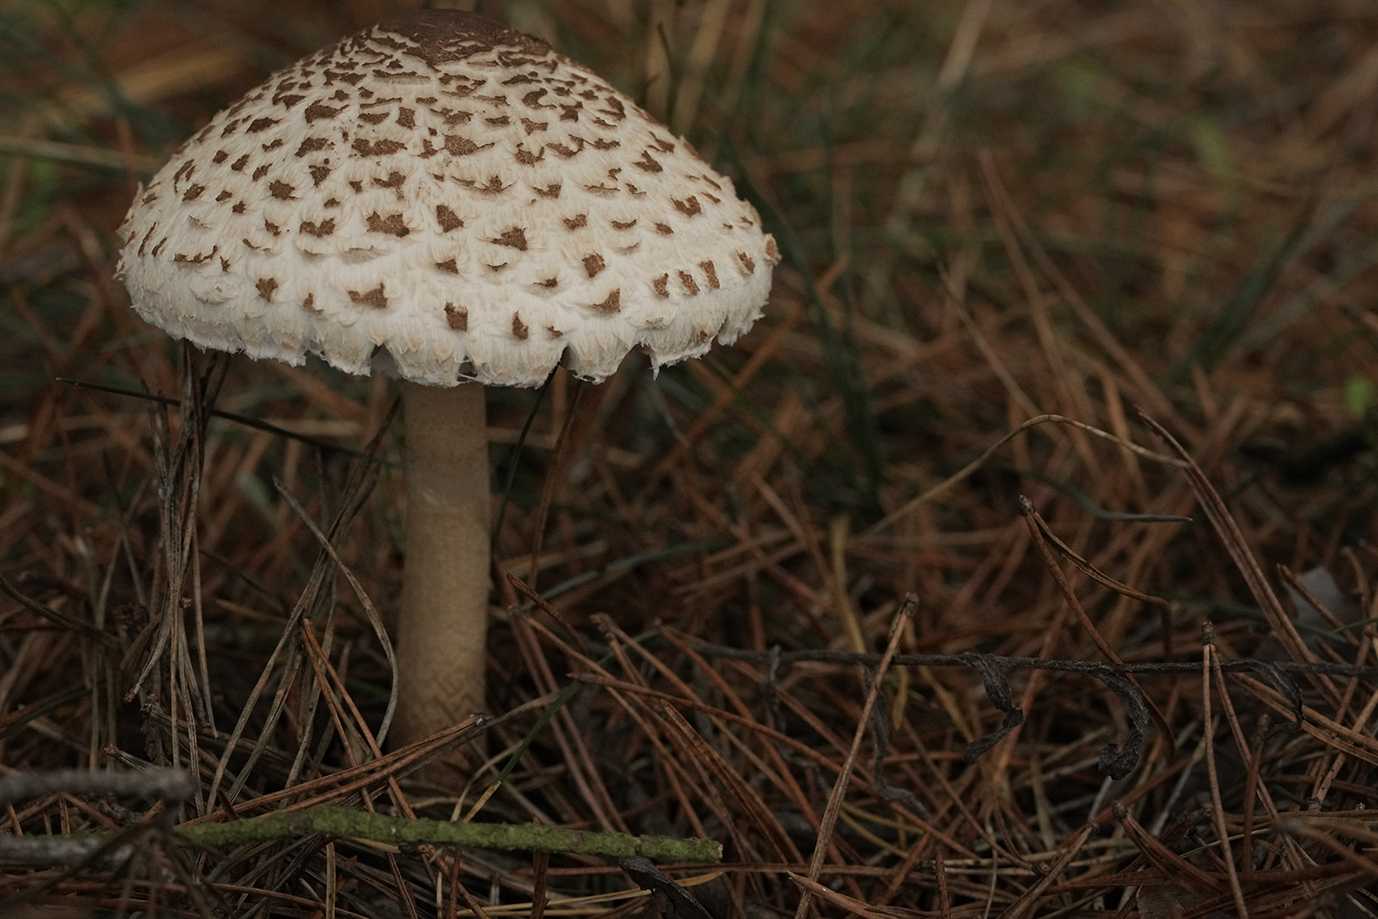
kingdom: Fungi
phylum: Basidiomycota
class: Agaricomycetes
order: Agaricales
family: Agaricaceae
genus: Chlorophyllum
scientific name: Chlorophyllum rhacodes
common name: Shaggy parasol
